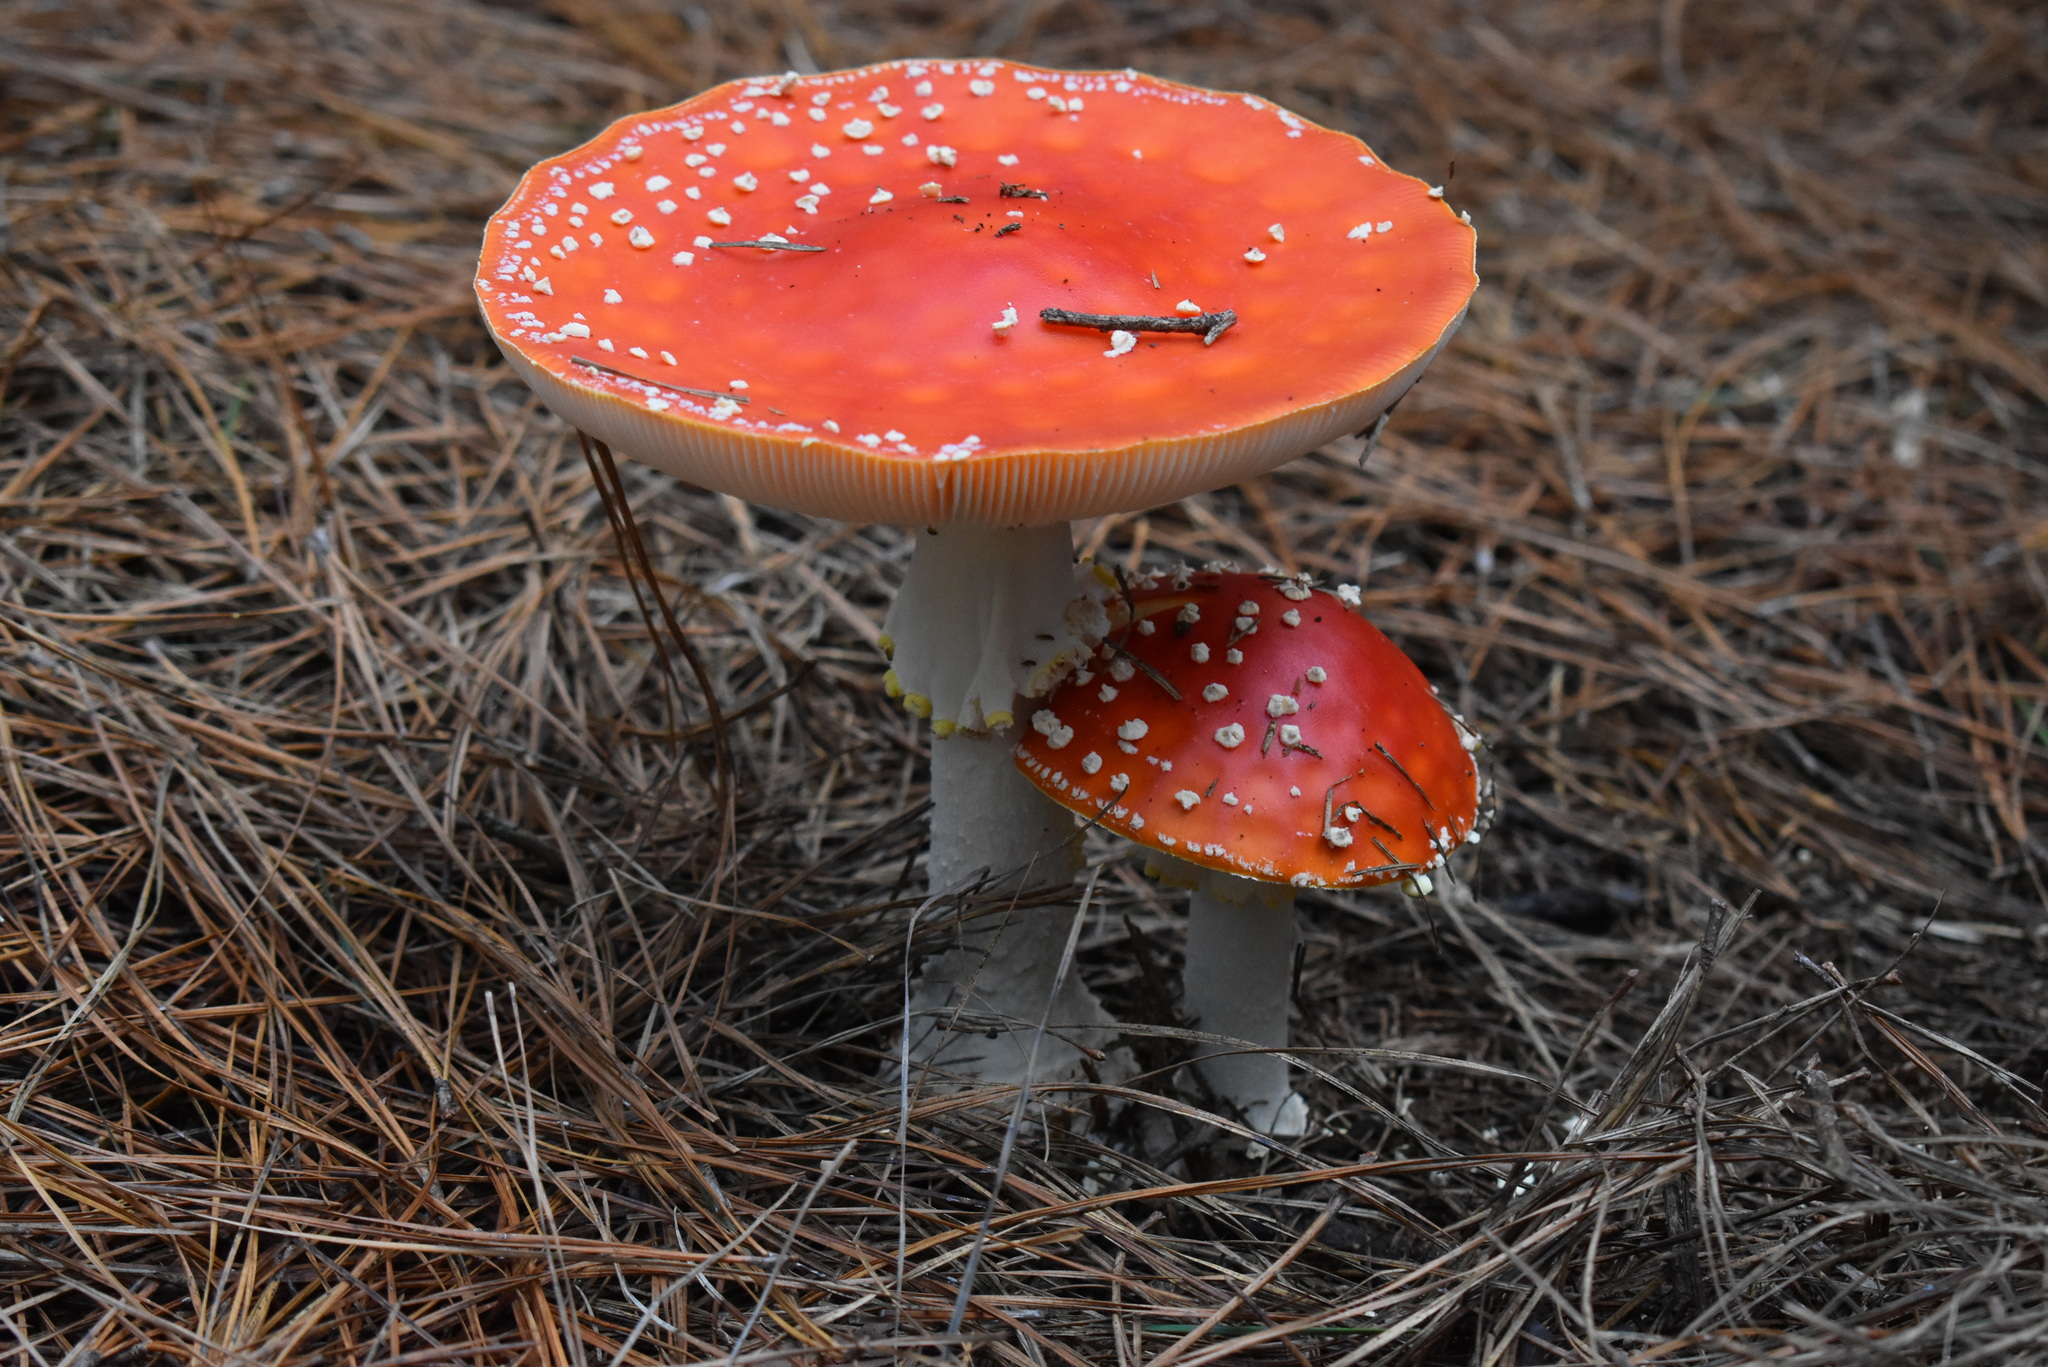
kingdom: Fungi
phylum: Basidiomycota
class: Agaricomycetes
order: Agaricales
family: Amanitaceae
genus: Amanita
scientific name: Amanita muscaria
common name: Fly agaric
